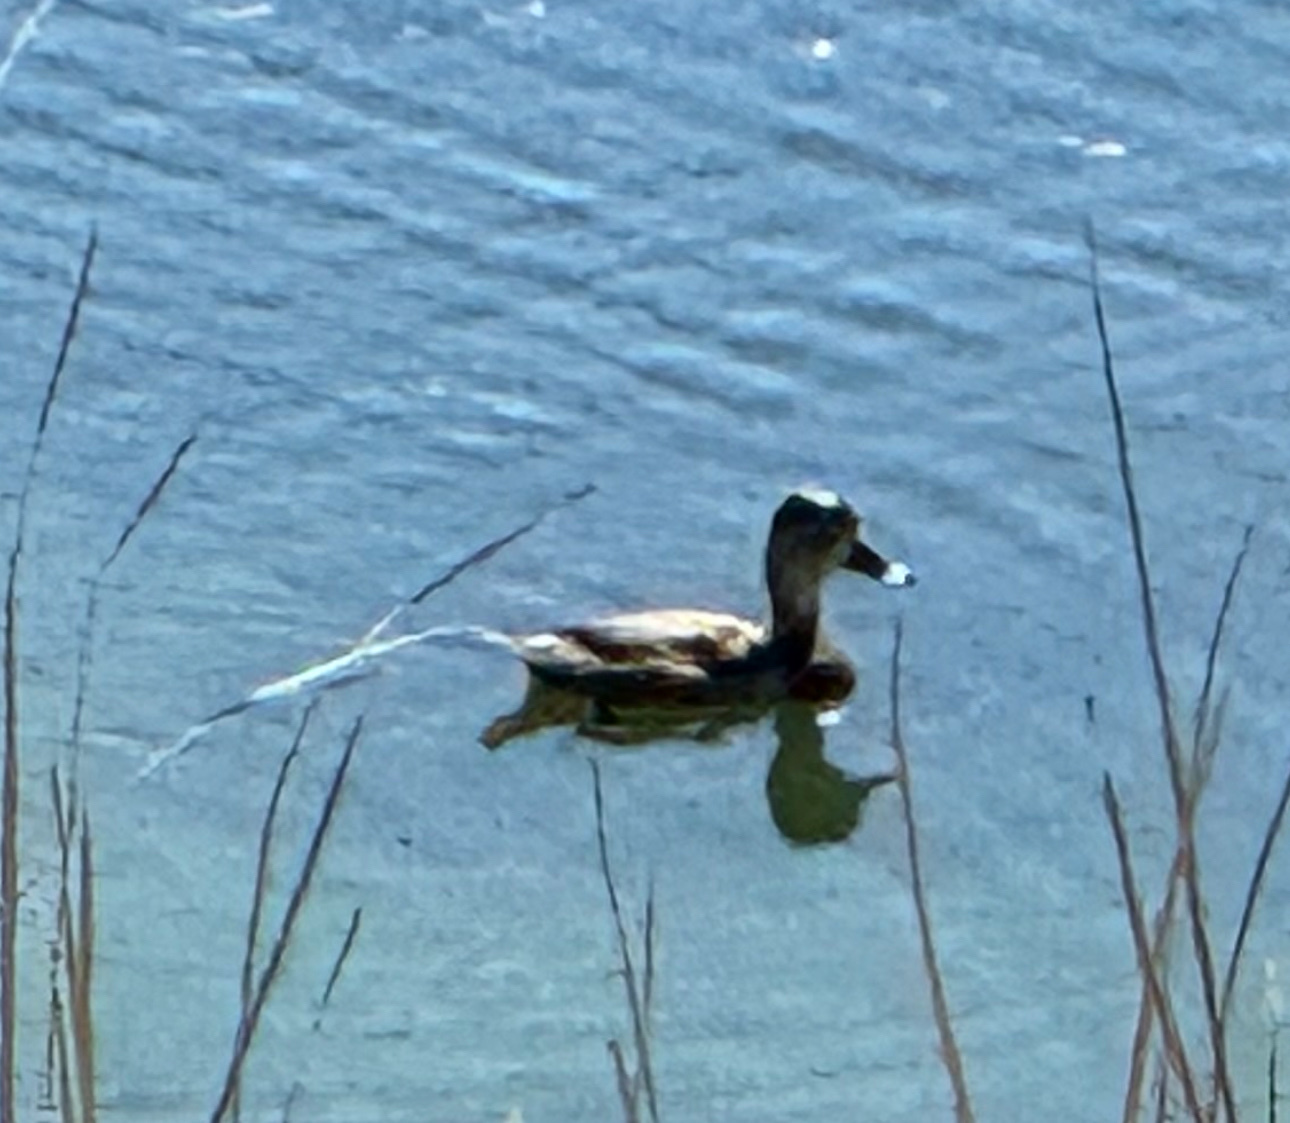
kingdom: Animalia
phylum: Chordata
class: Aves
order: Anseriformes
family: Anatidae
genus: Aythya
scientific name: Aythya collaris
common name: Ring-necked duck
